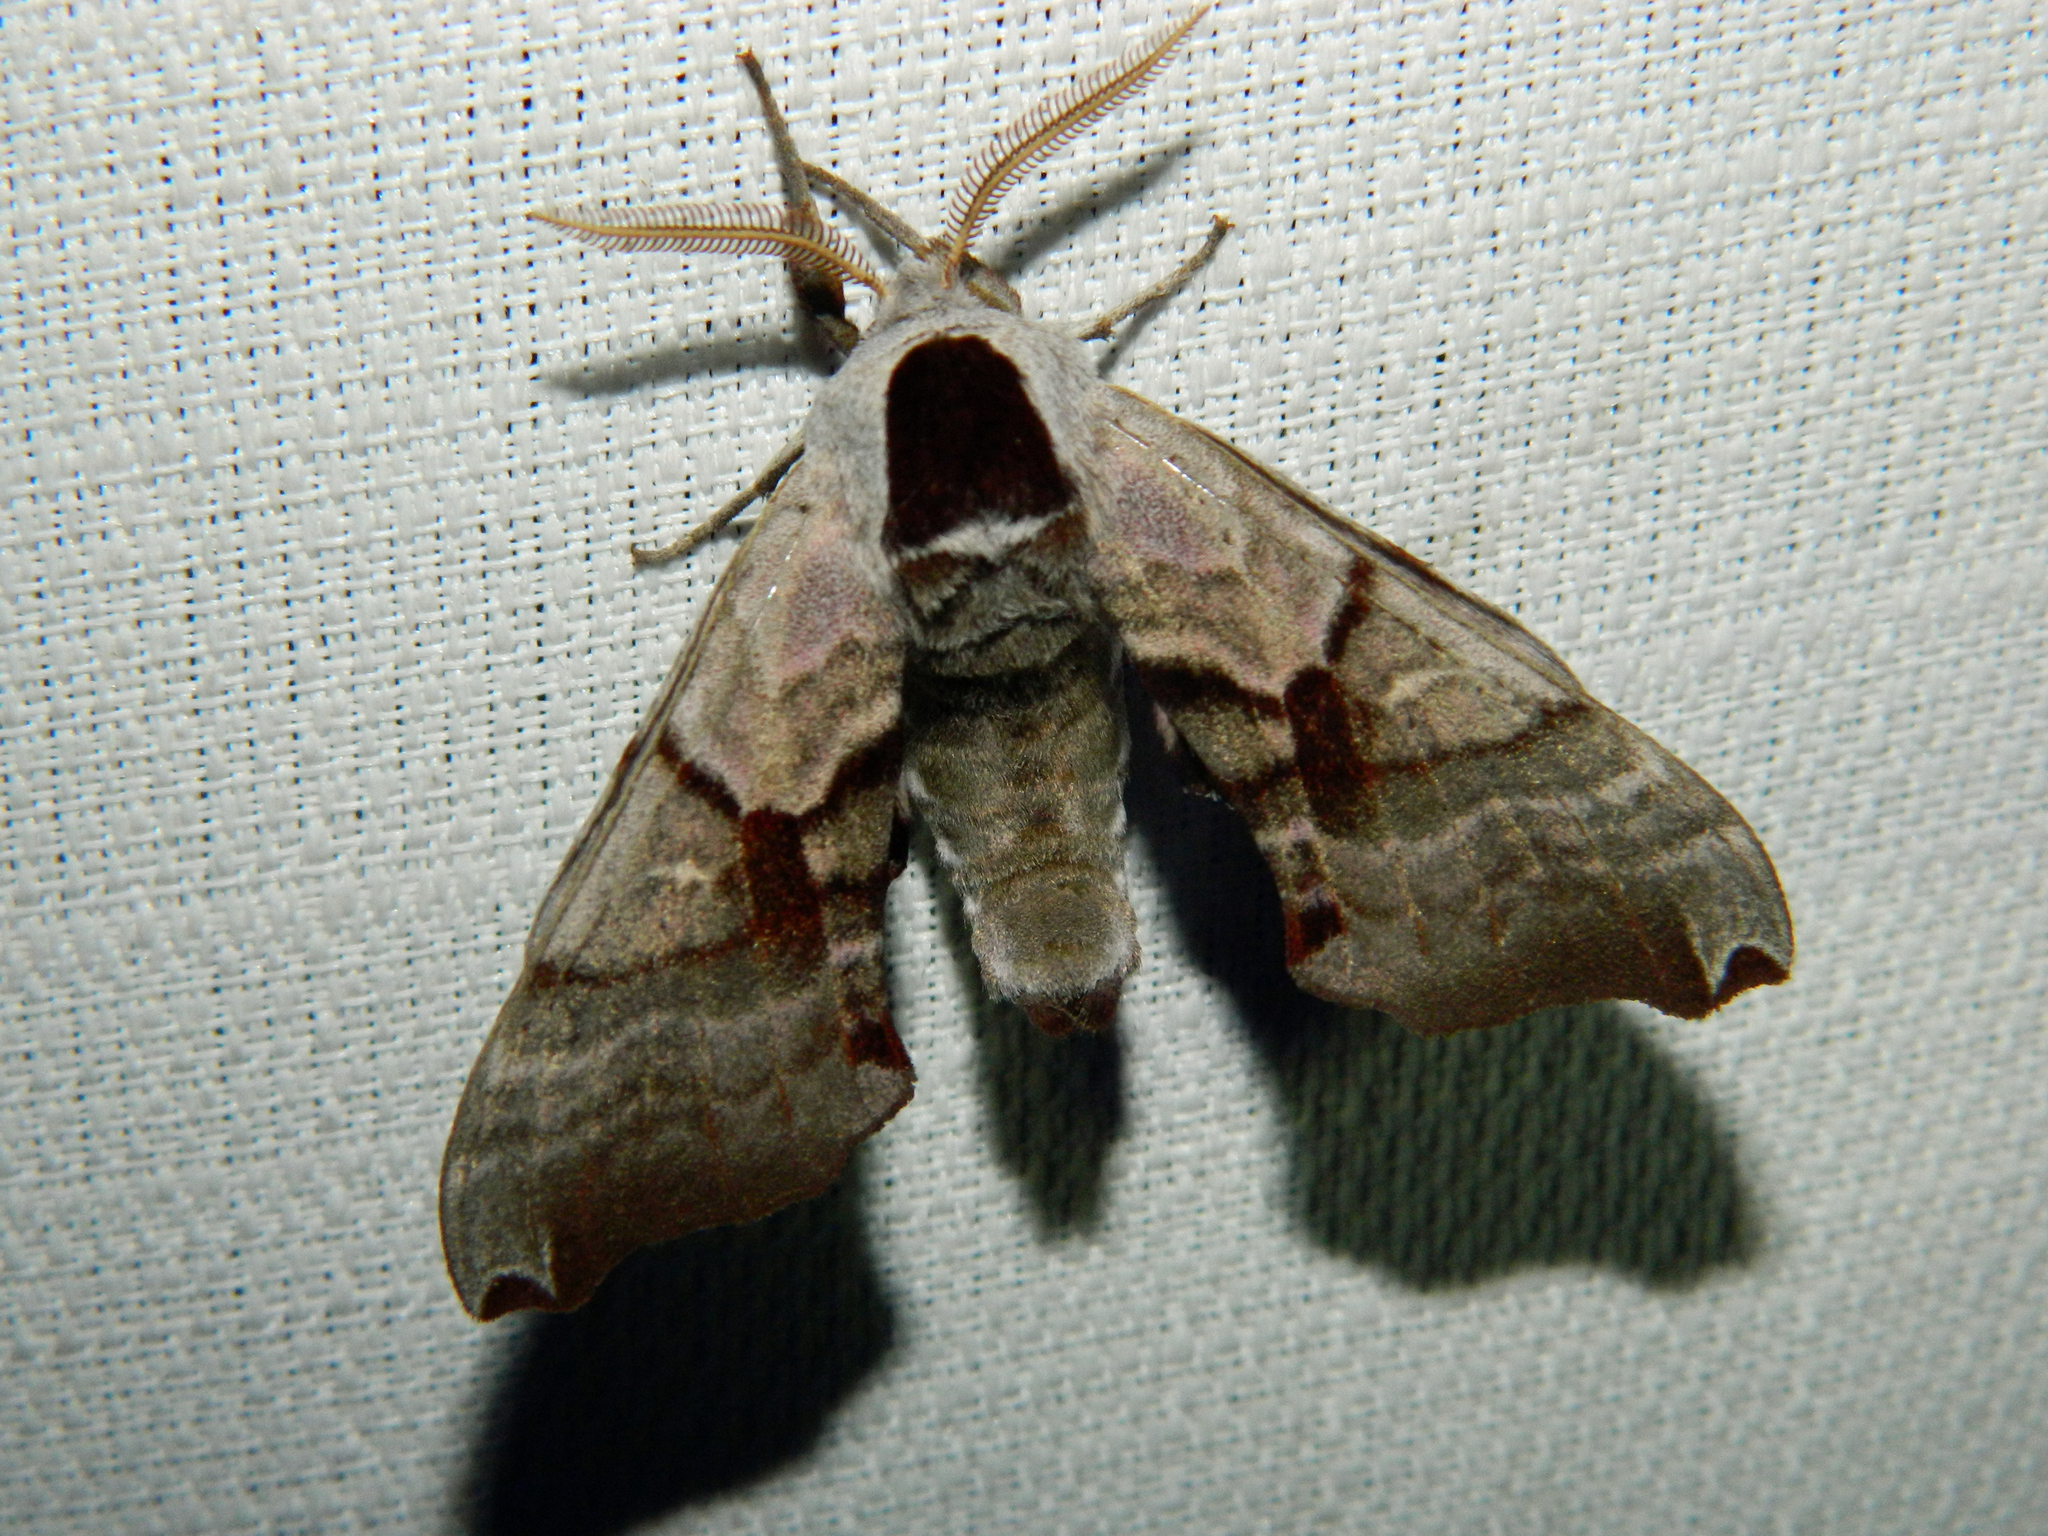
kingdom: Animalia
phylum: Arthropoda
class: Insecta
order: Lepidoptera
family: Sphingidae
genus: Smerinthus
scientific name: Smerinthus jamaicensis
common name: Twin spotted sphinx
